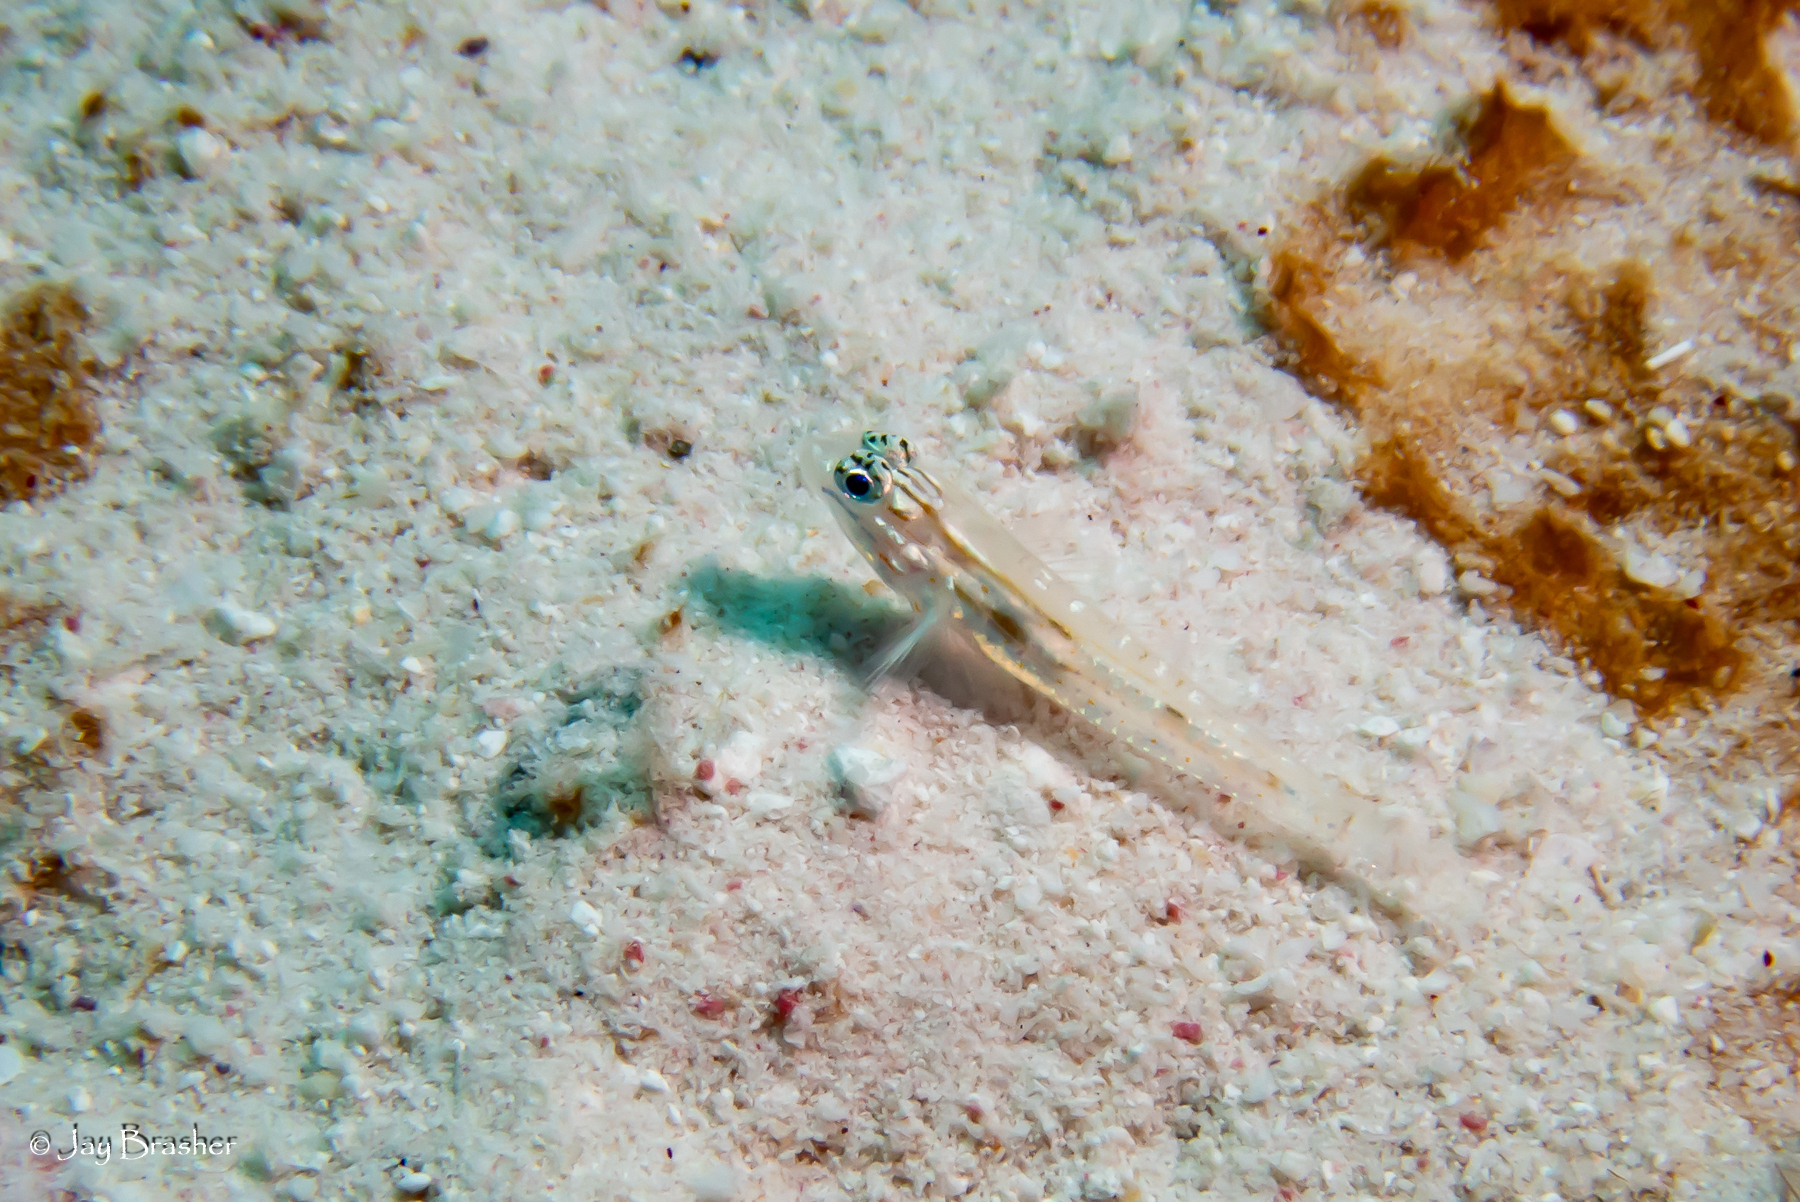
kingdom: Animalia
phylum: Chordata
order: Perciformes
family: Gobiidae
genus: Coryphopterus
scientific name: Coryphopterus venezuelae
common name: Sand-canyon goby
